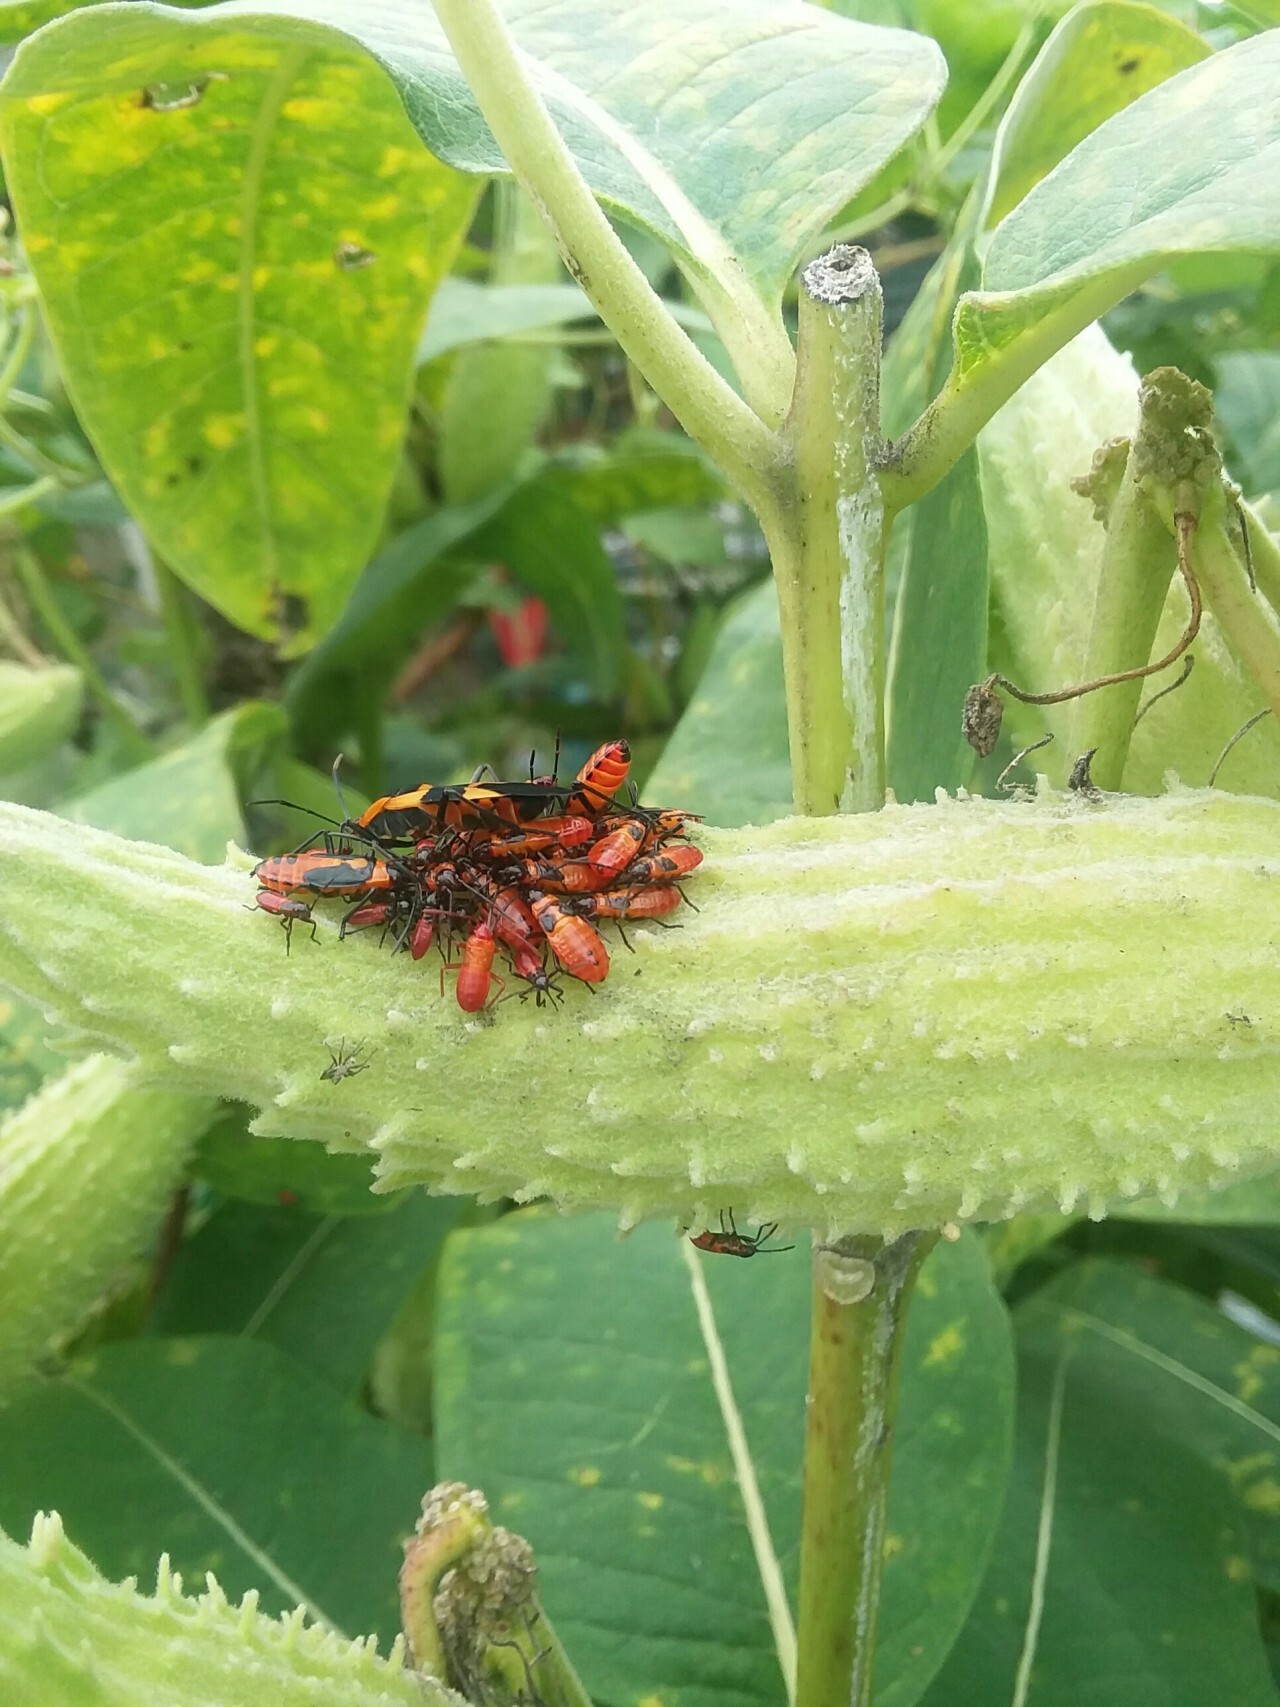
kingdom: Animalia
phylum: Arthropoda
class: Insecta
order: Hemiptera
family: Lygaeidae
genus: Oncopeltus
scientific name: Oncopeltus fasciatus
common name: Large milkweed bug
